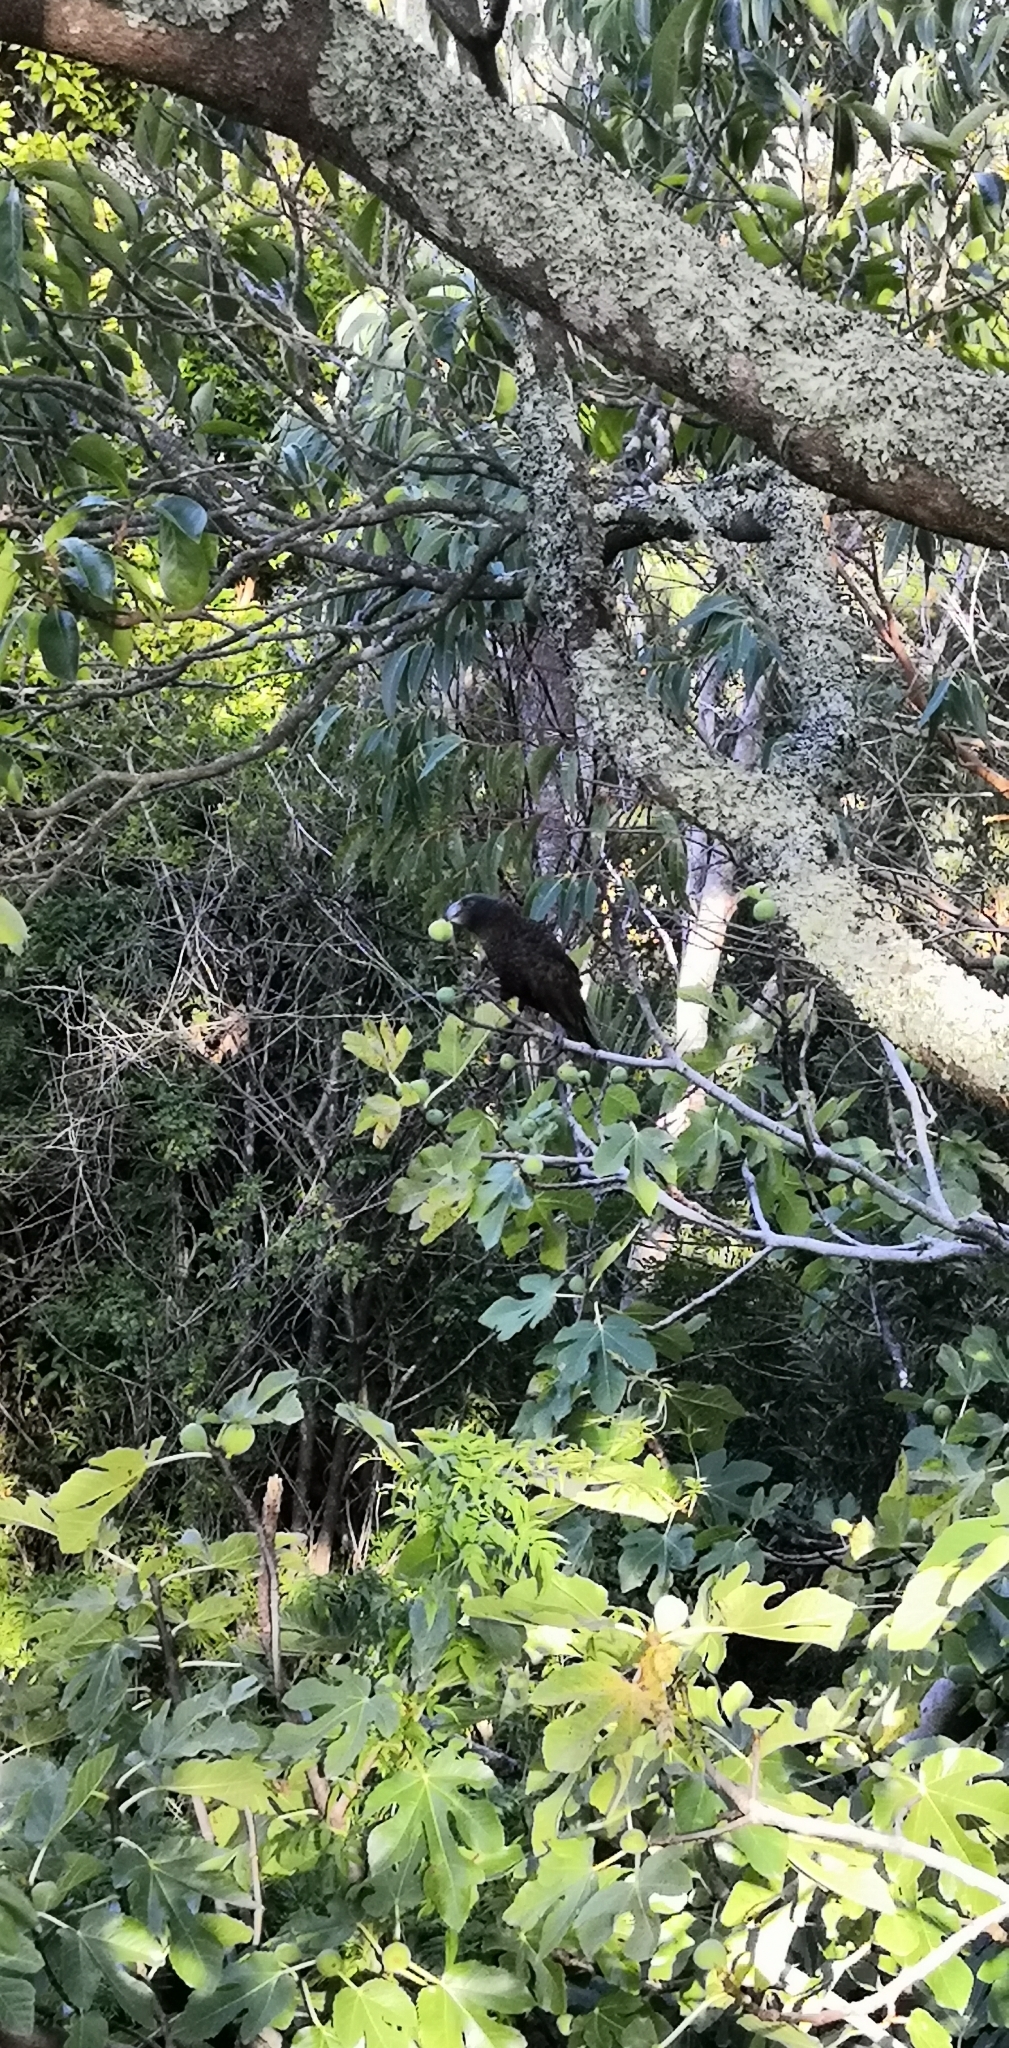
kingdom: Animalia
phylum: Chordata
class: Aves
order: Psittaciformes
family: Psittacidae
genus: Nestor
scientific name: Nestor meridionalis
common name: New zealand kaka
